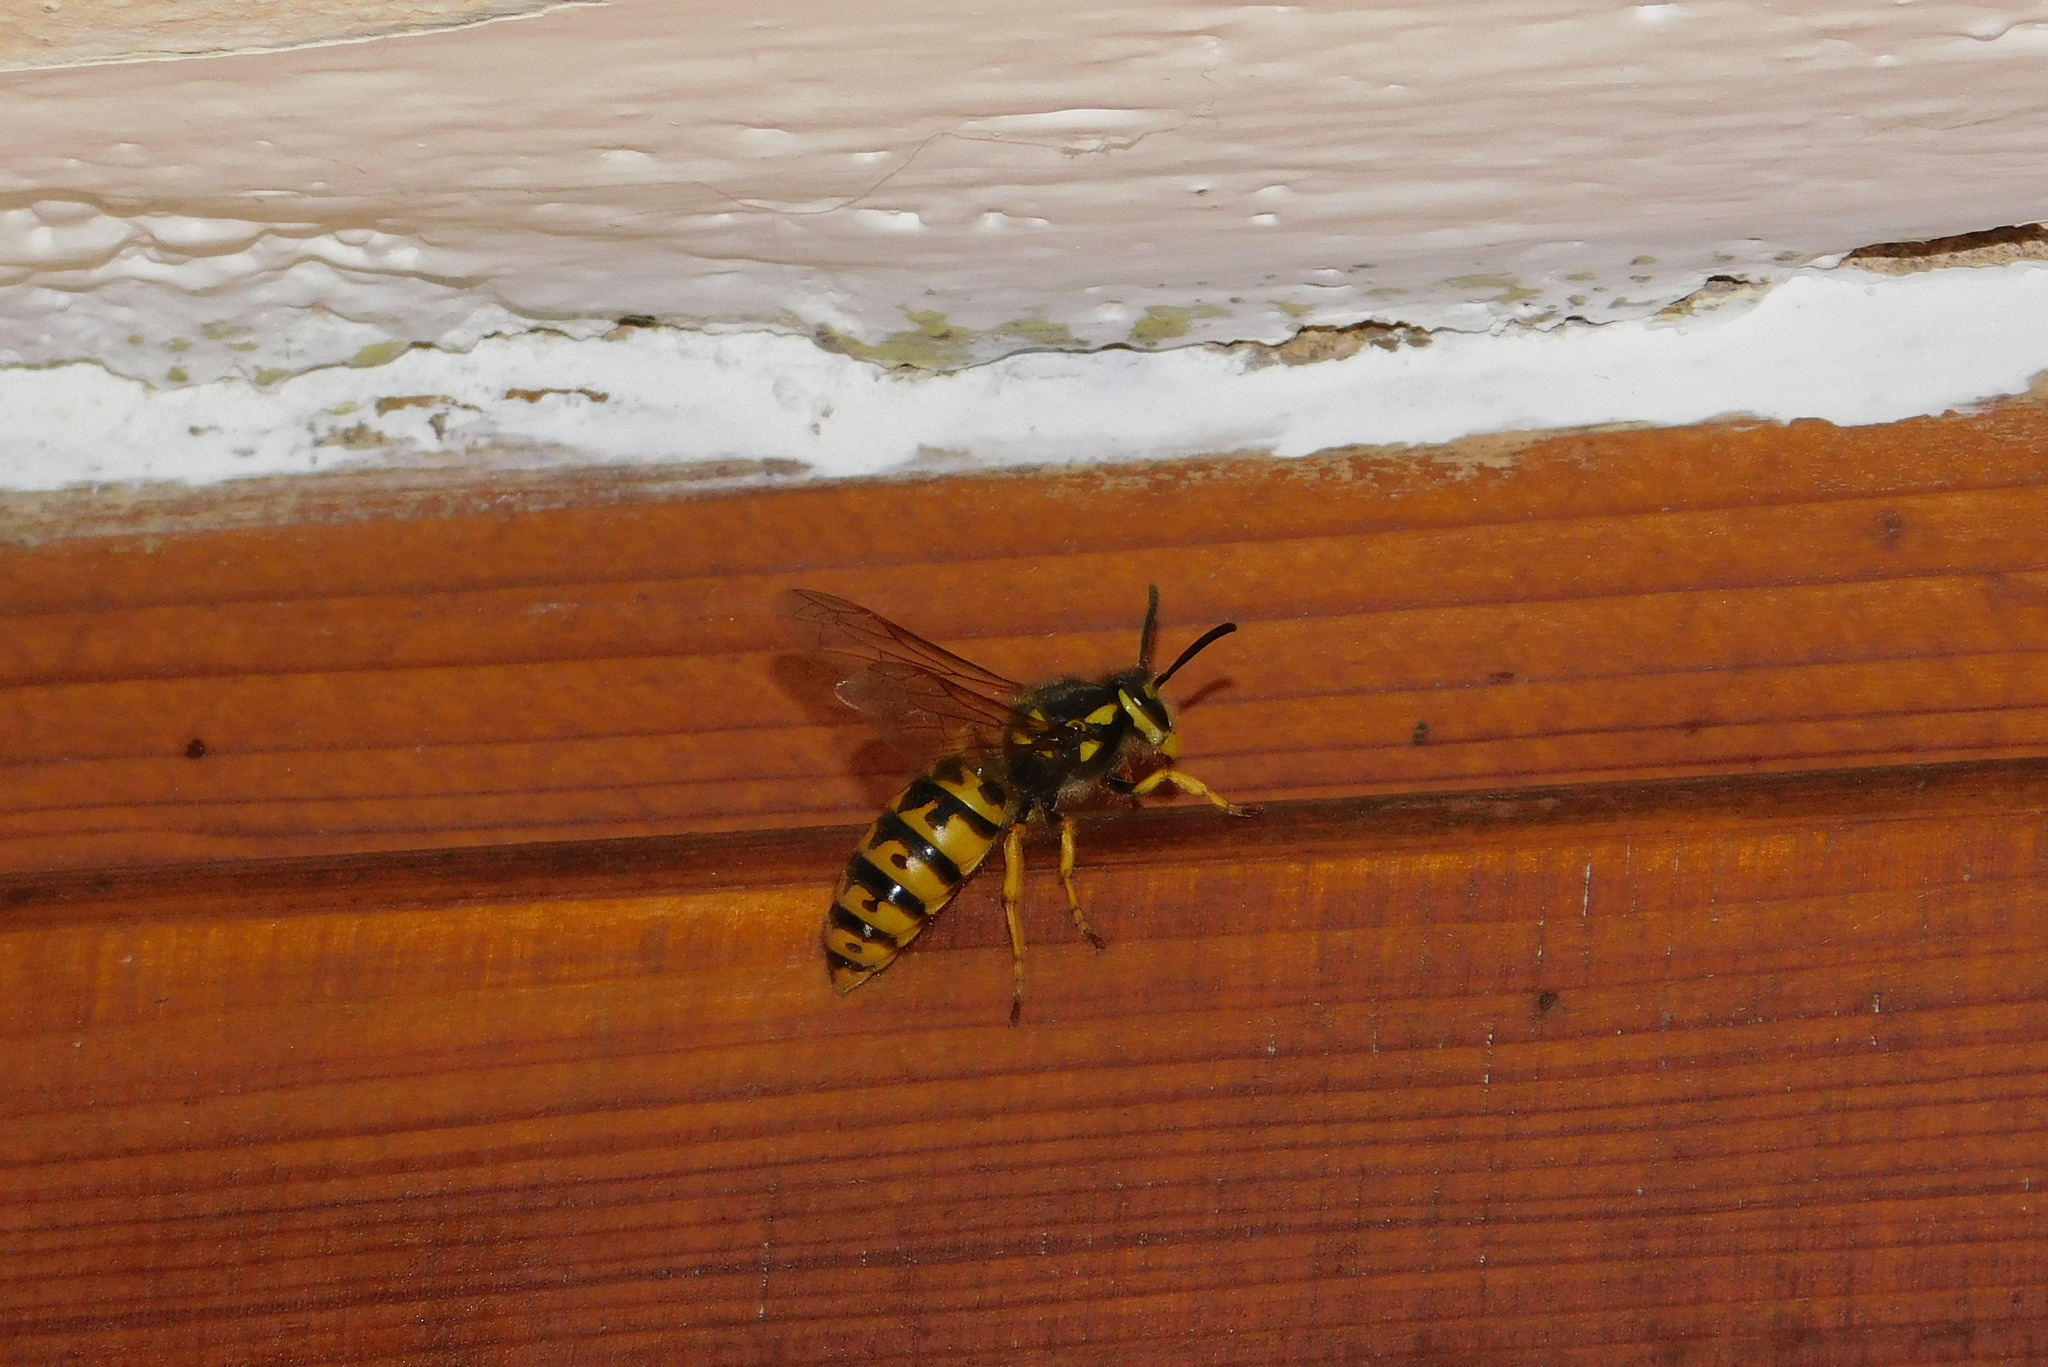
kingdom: Animalia
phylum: Arthropoda
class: Insecta
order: Hymenoptera
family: Vespidae
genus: Vespula
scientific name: Vespula germanica
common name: German wasp
